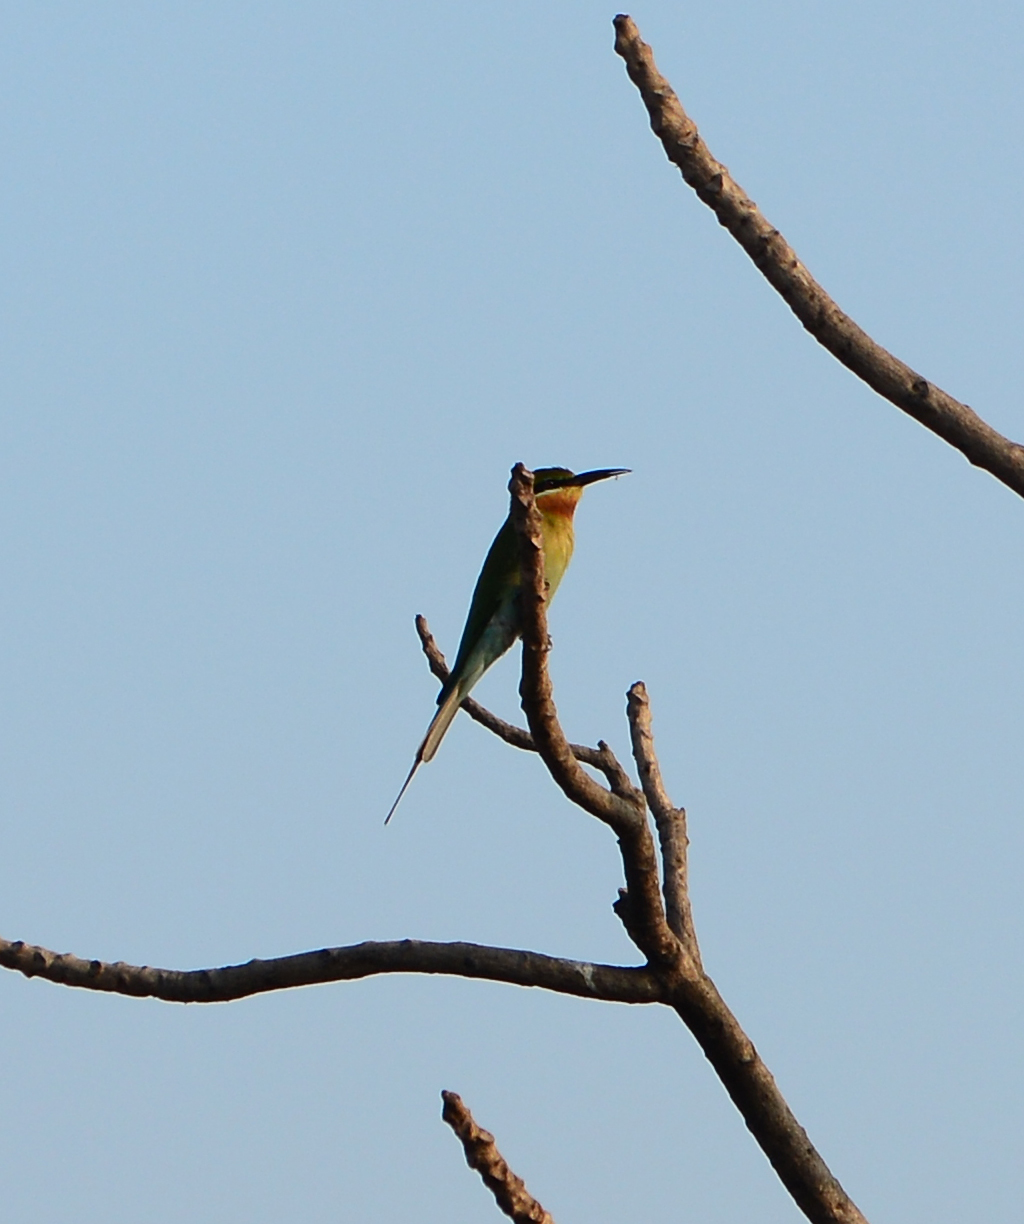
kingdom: Animalia
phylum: Chordata
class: Aves
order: Coraciiformes
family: Meropidae
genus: Merops
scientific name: Merops philippinus
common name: Blue-tailed bee-eater
